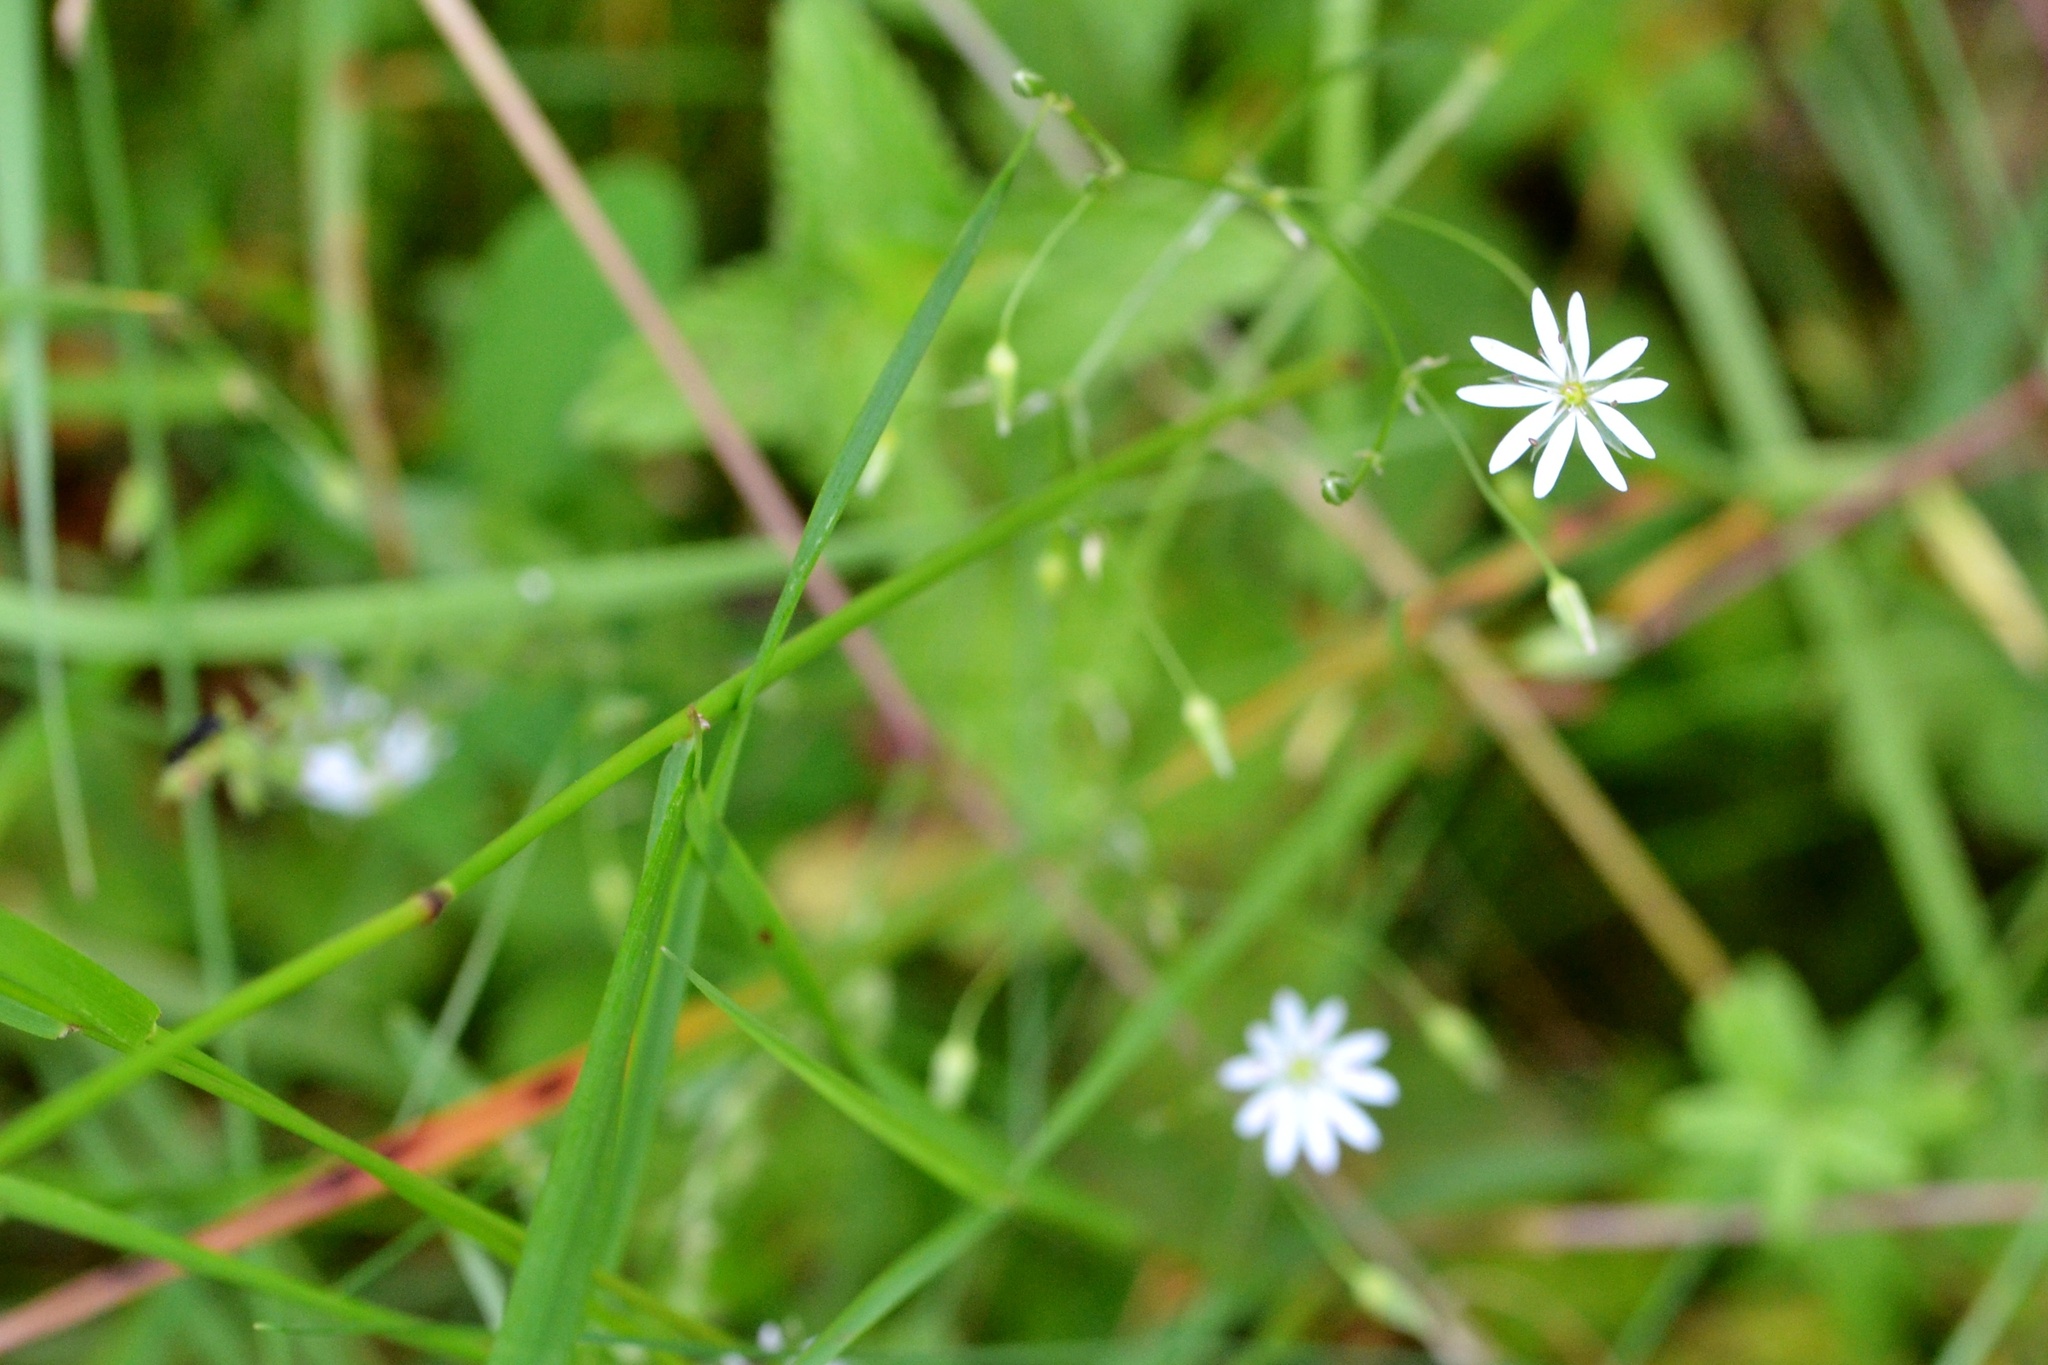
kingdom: Plantae
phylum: Tracheophyta
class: Magnoliopsida
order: Caryophyllales
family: Caryophyllaceae
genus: Stellaria
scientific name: Stellaria graminea
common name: Grass-like starwort
